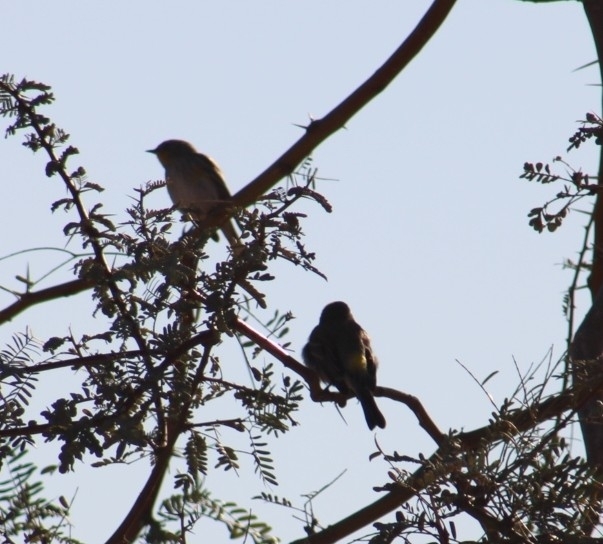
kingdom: Animalia
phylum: Chordata
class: Aves
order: Passeriformes
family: Parulidae
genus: Setophaga
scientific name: Setophaga coronata
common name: Myrtle warbler
